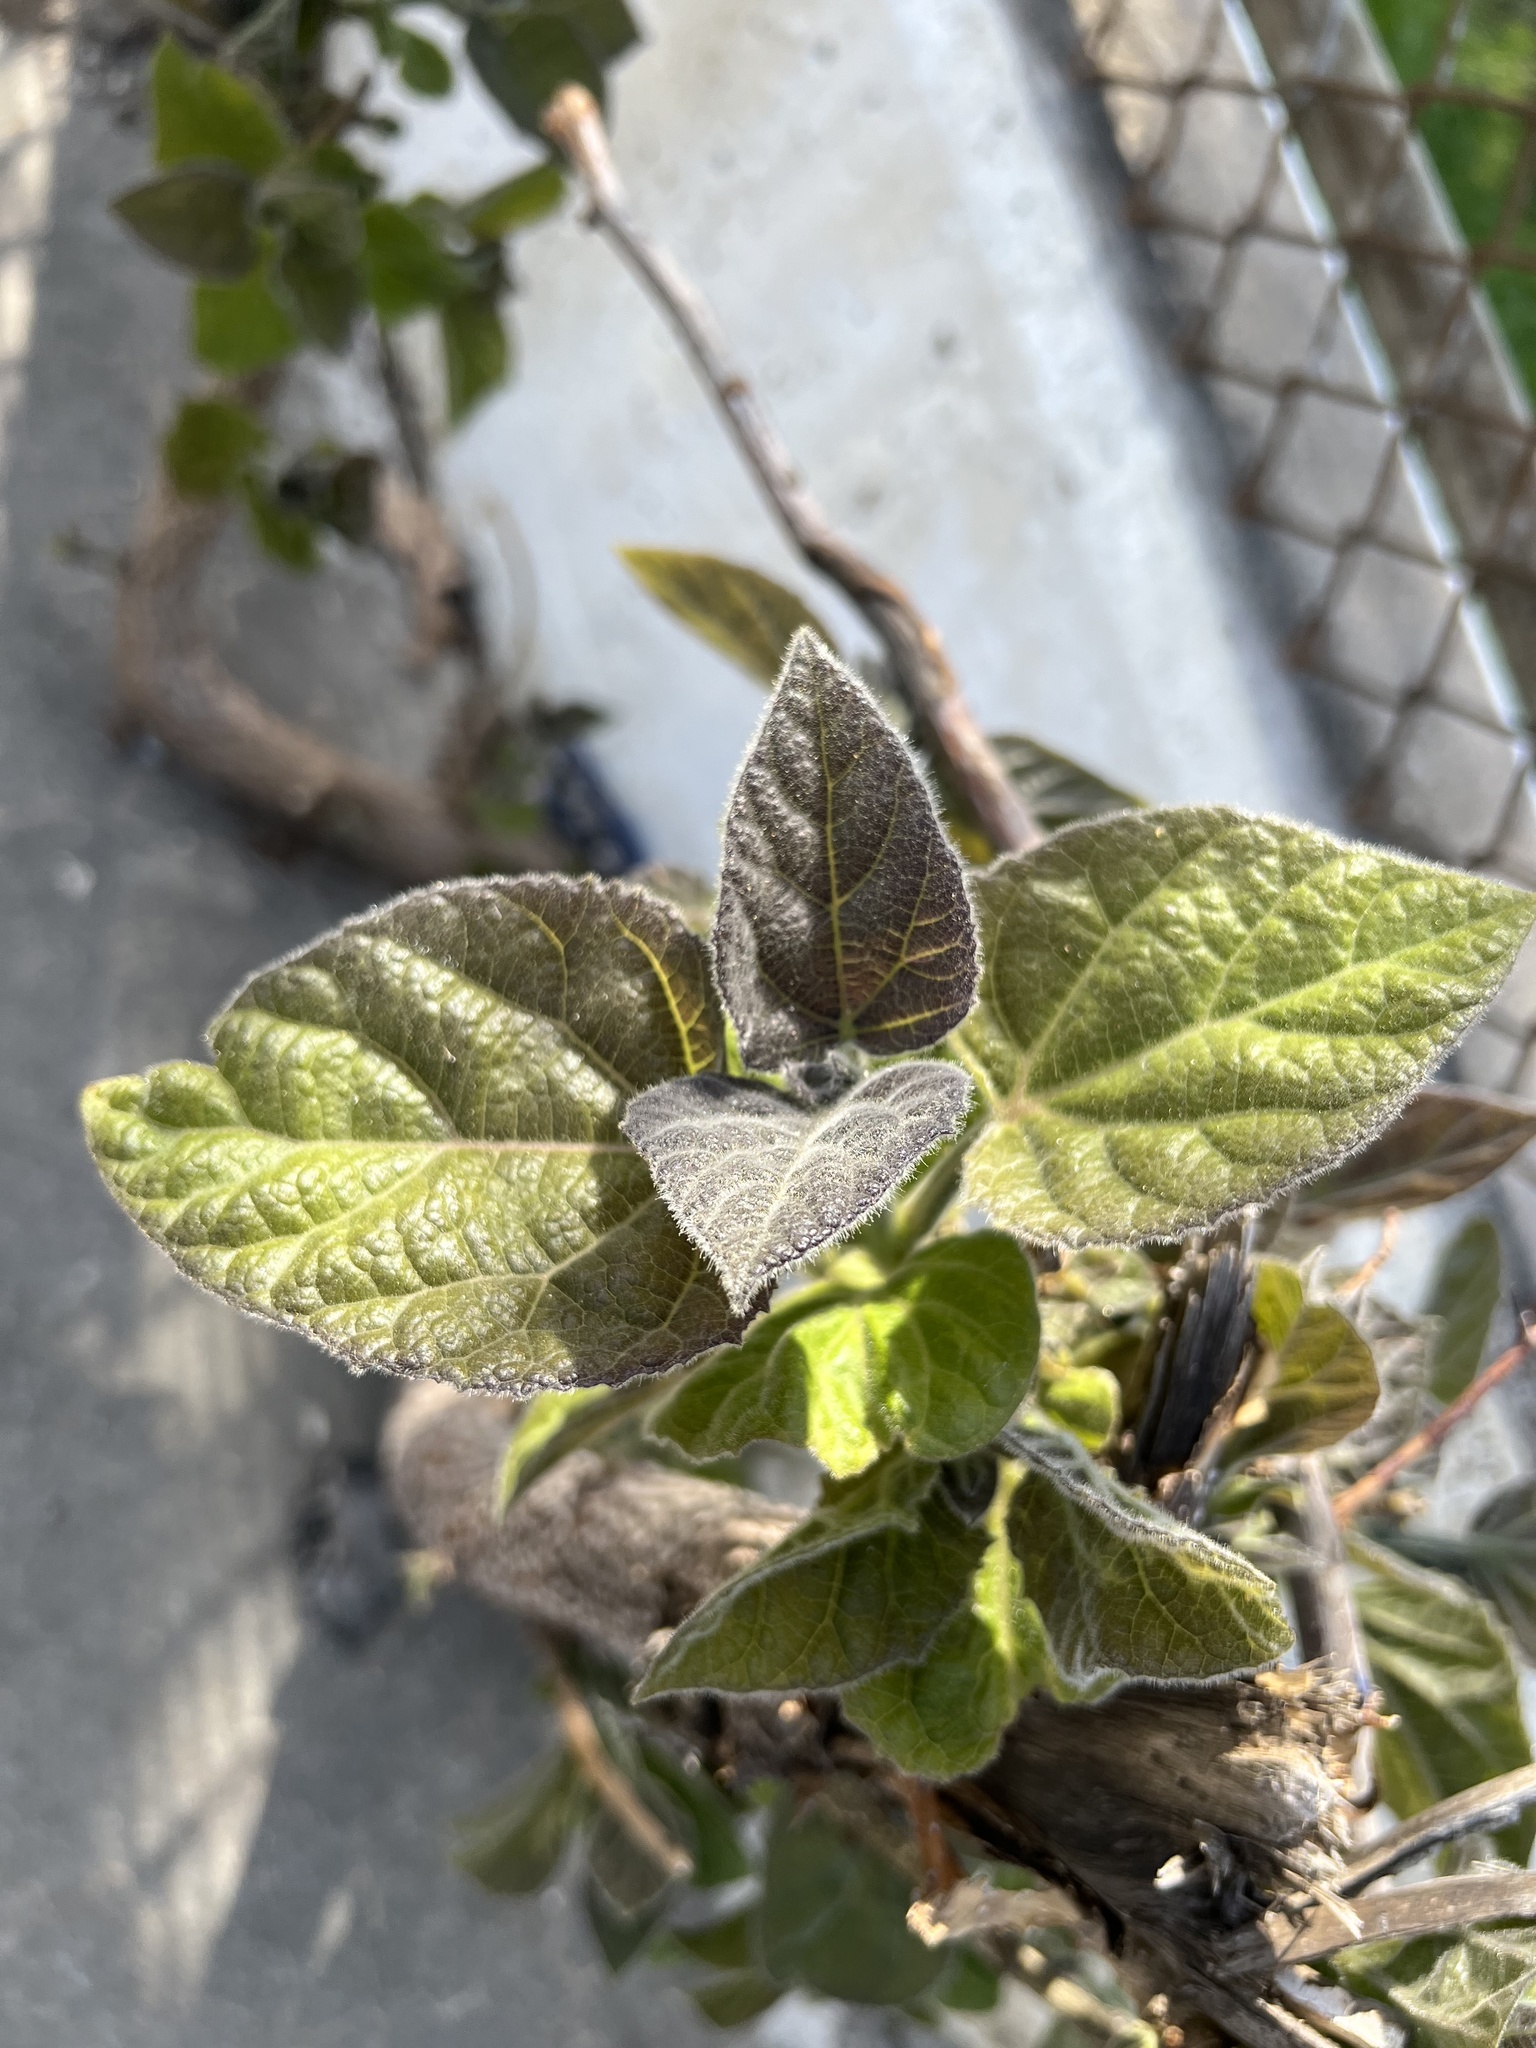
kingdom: Plantae
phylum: Tracheophyta
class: Magnoliopsida
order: Lamiales
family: Paulowniaceae
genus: Paulownia
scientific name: Paulownia tomentosa
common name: Foxglove-tree
